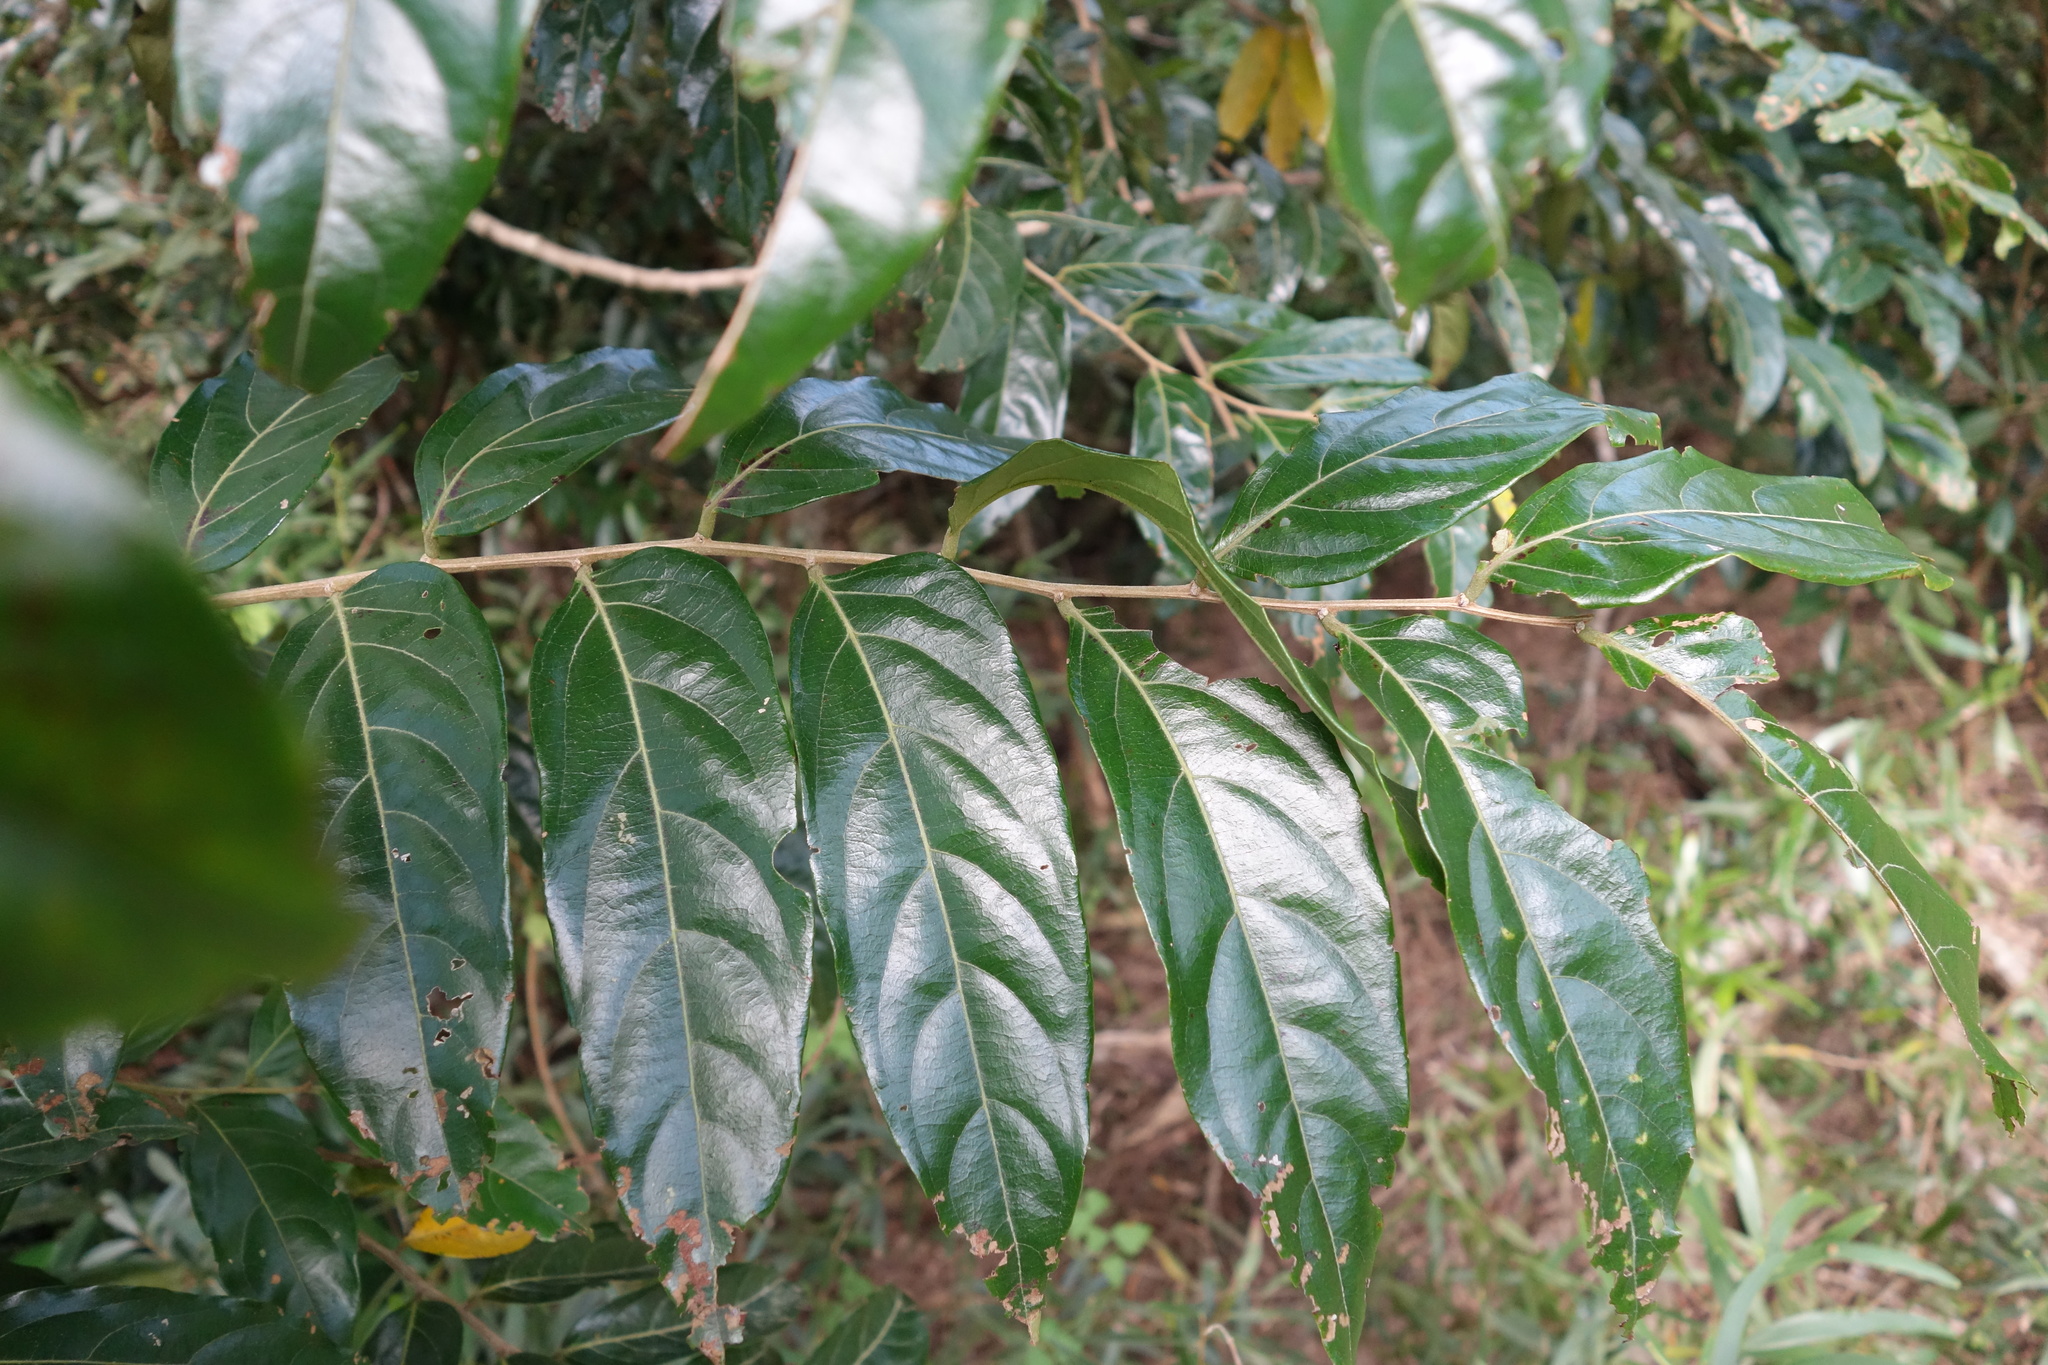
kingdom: Plantae
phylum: Tracheophyta
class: Magnoliopsida
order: Malpighiales
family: Phyllanthaceae
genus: Glochidion
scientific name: Glochidion philippicum
